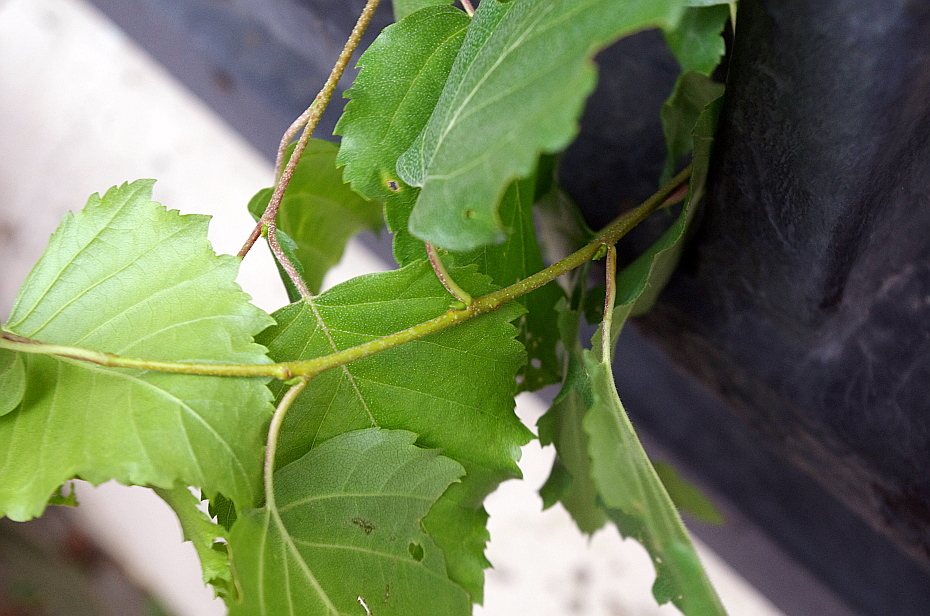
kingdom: Plantae
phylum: Tracheophyta
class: Magnoliopsida
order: Fagales
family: Betulaceae
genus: Betula
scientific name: Betula pendula
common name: Silver birch
